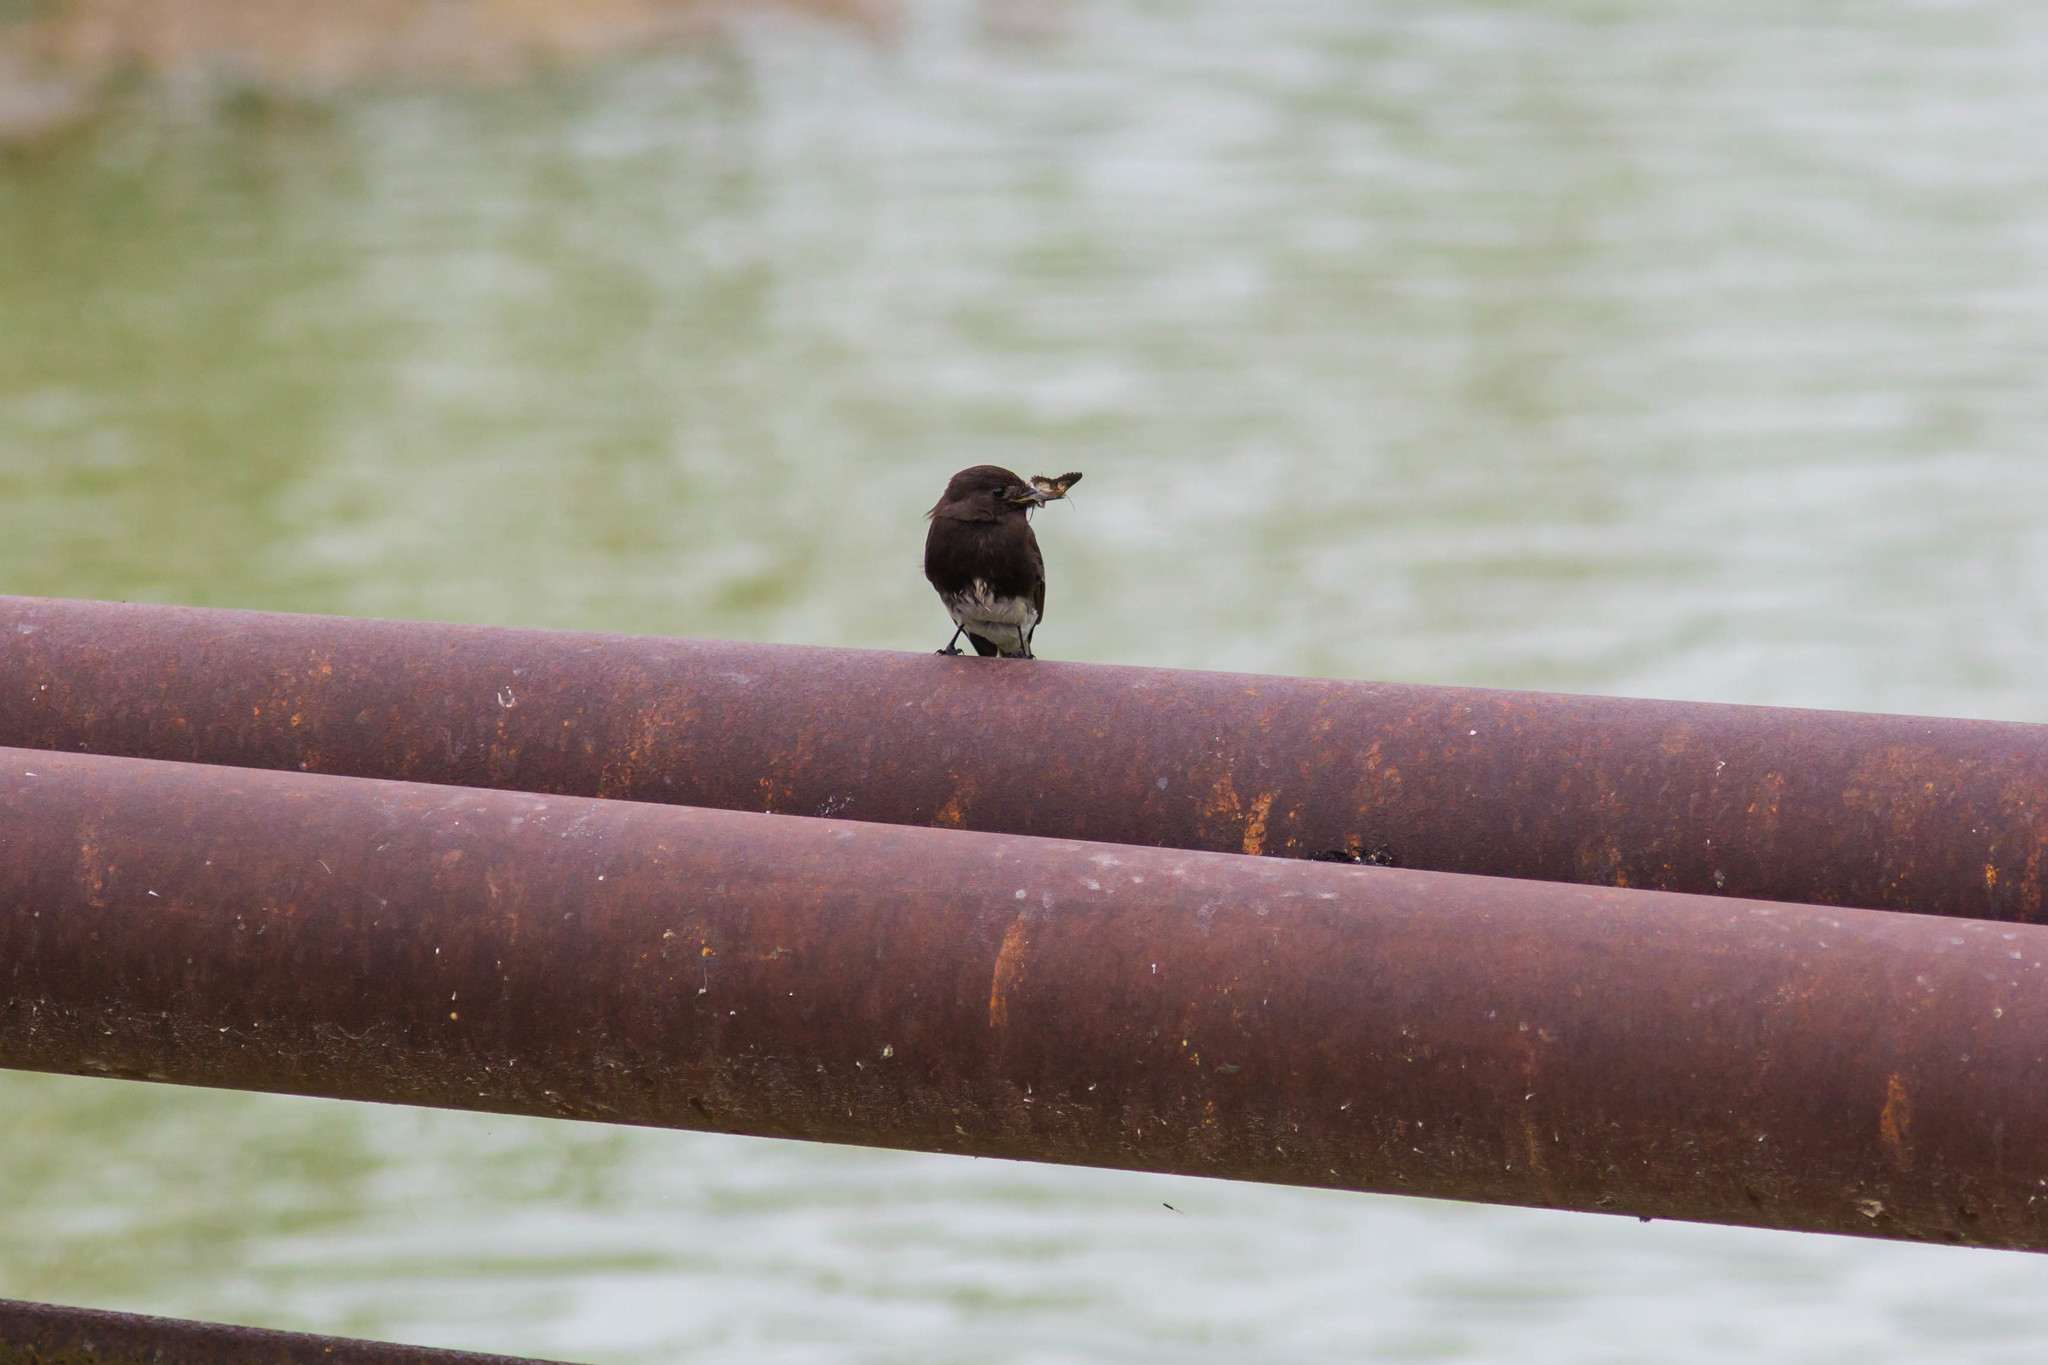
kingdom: Animalia
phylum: Chordata
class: Aves
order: Passeriformes
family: Tyrannidae
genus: Sayornis
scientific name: Sayornis nigricans
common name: Black phoebe
